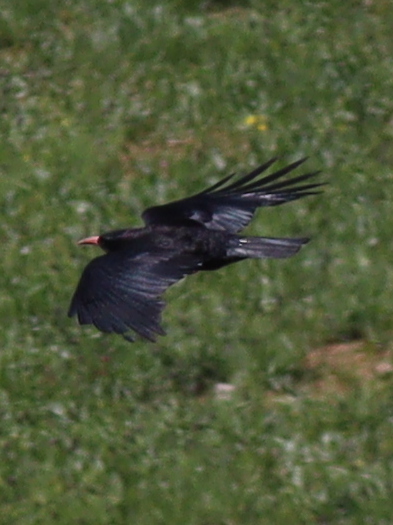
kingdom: Animalia
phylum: Chordata
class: Aves
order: Passeriformes
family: Corvidae
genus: Pyrrhocorax
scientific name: Pyrrhocorax pyrrhocorax
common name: Red-billed chough
